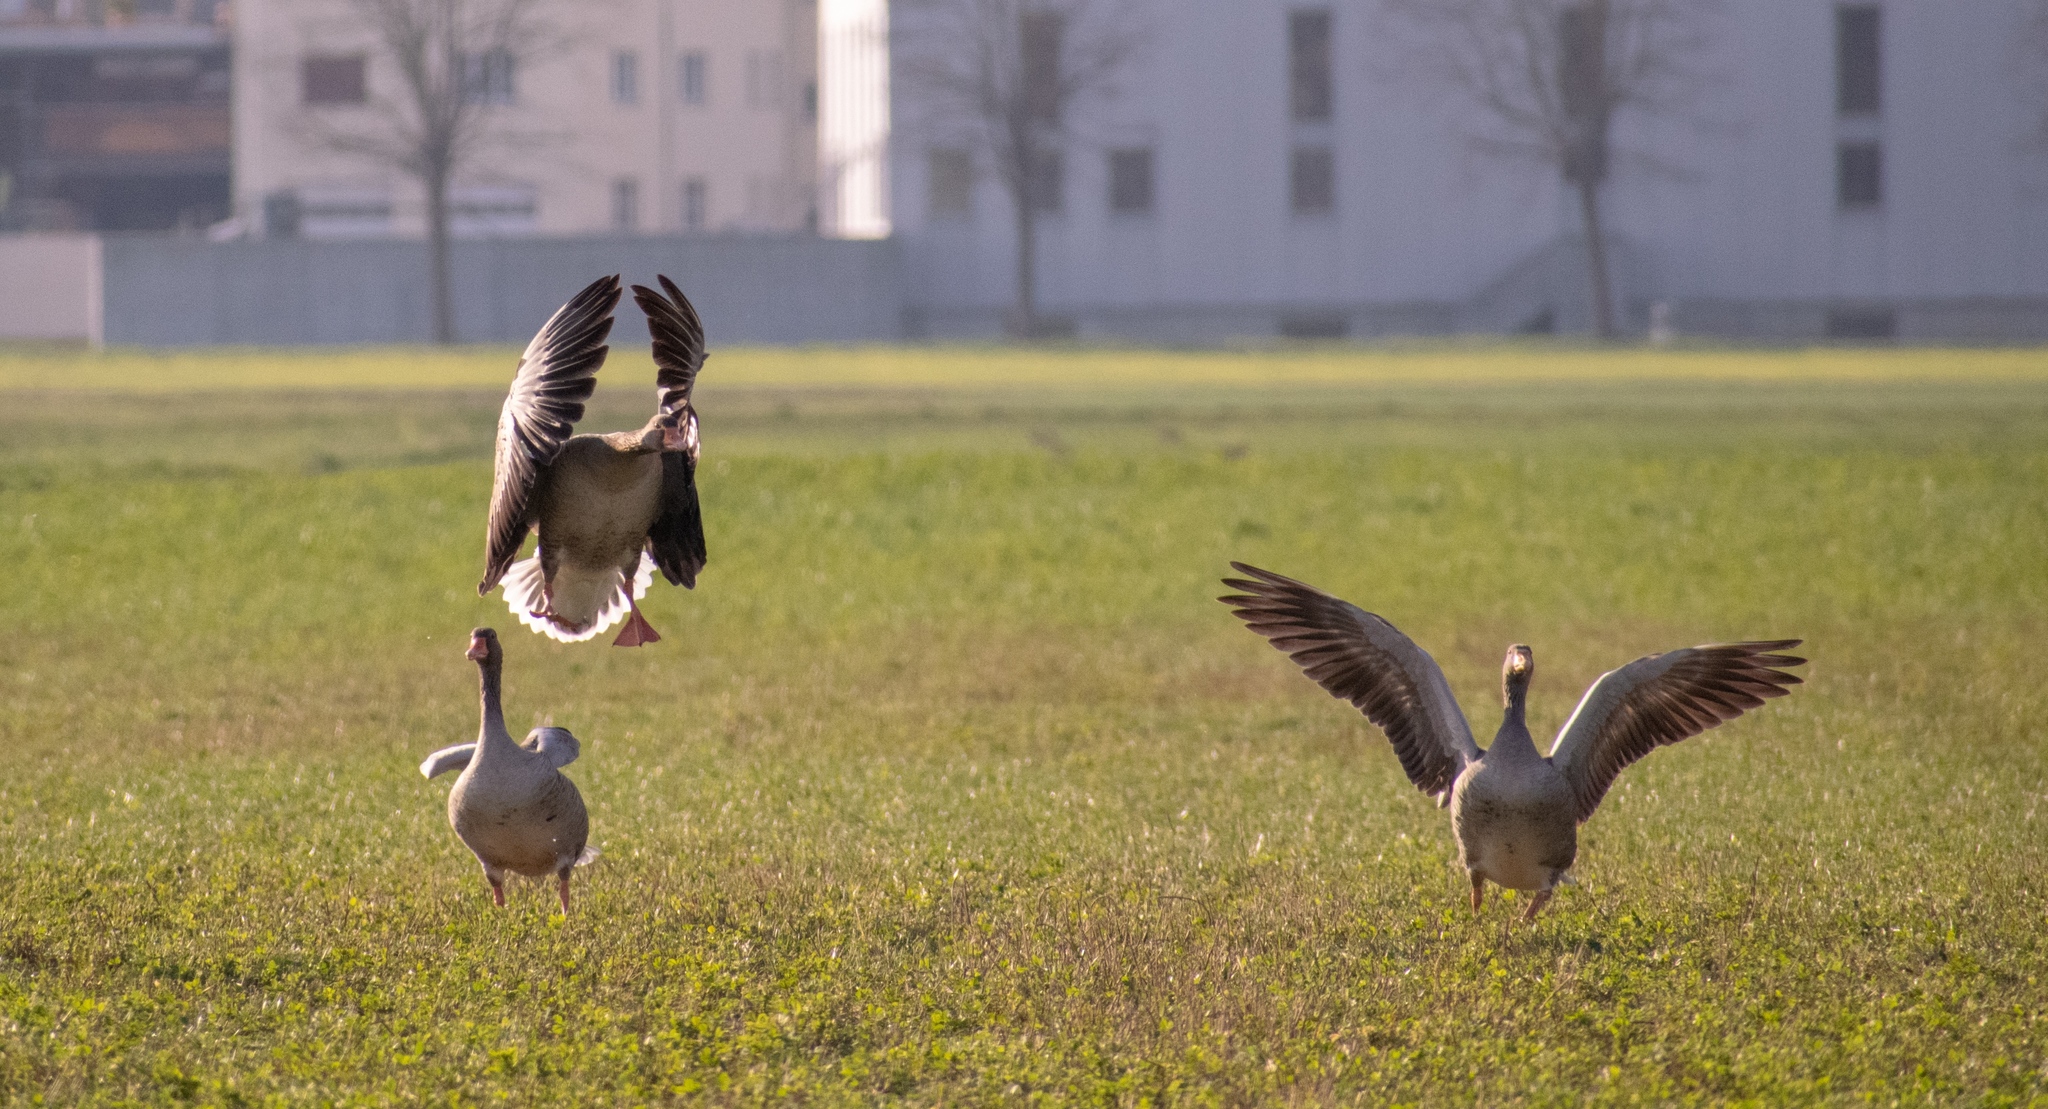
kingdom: Animalia
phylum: Chordata
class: Aves
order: Anseriformes
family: Anatidae
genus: Anser
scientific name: Anser anser
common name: Greylag goose
